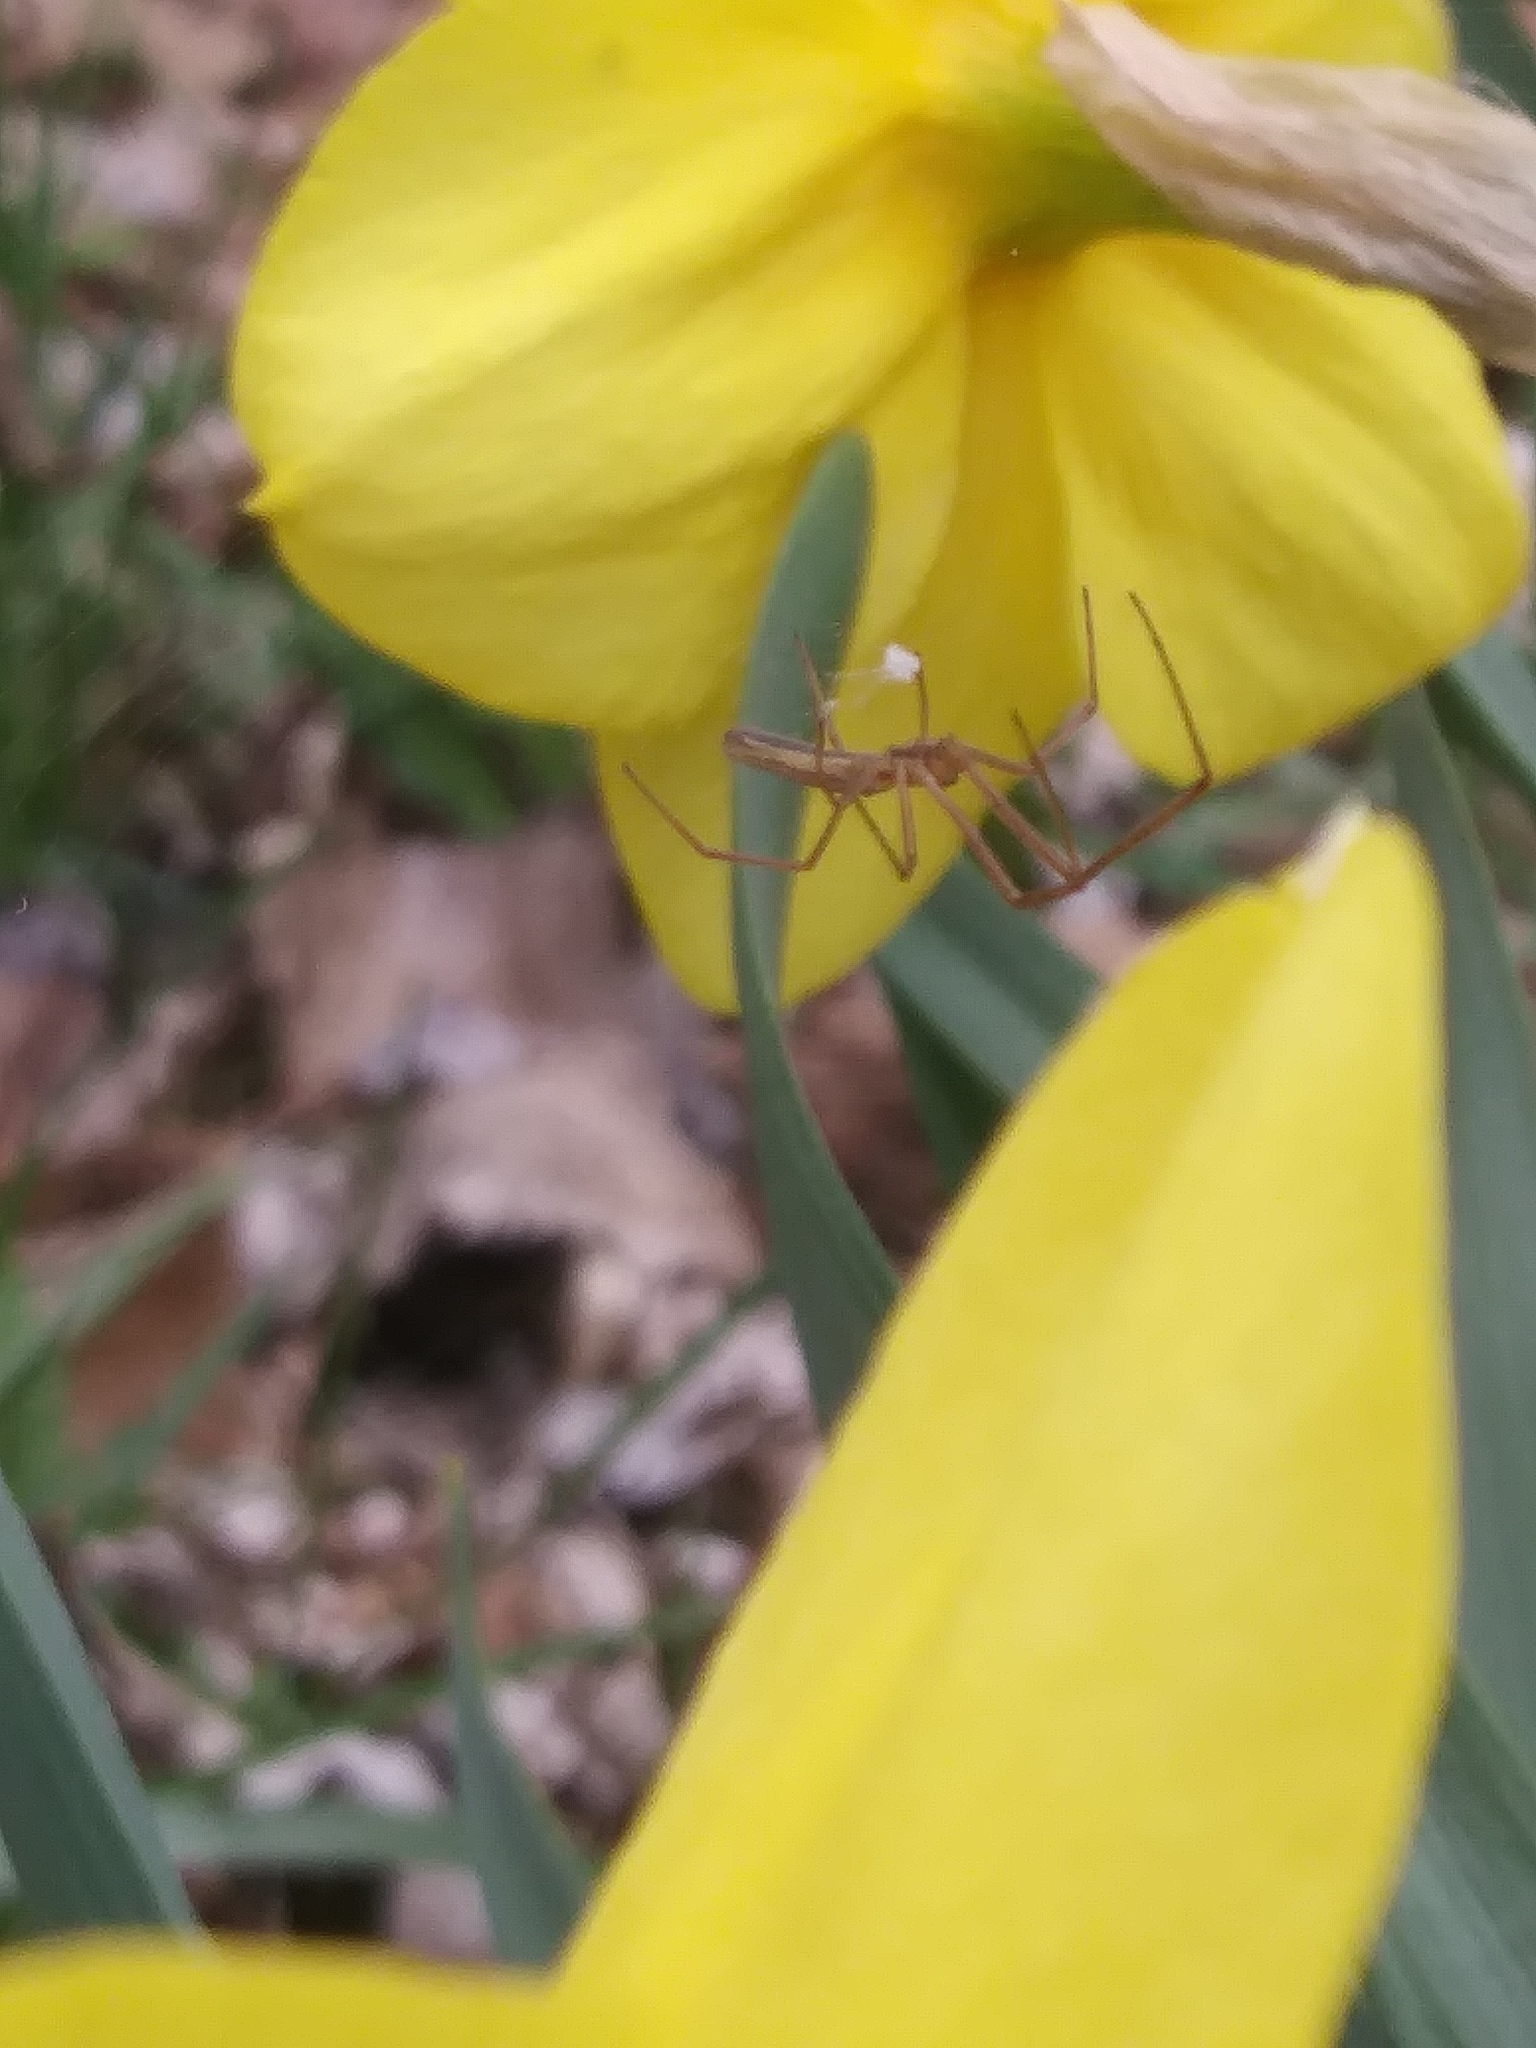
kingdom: Animalia
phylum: Arthropoda
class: Arachnida
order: Araneae
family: Tetragnathidae
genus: Tetragnatha
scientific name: Tetragnatha
